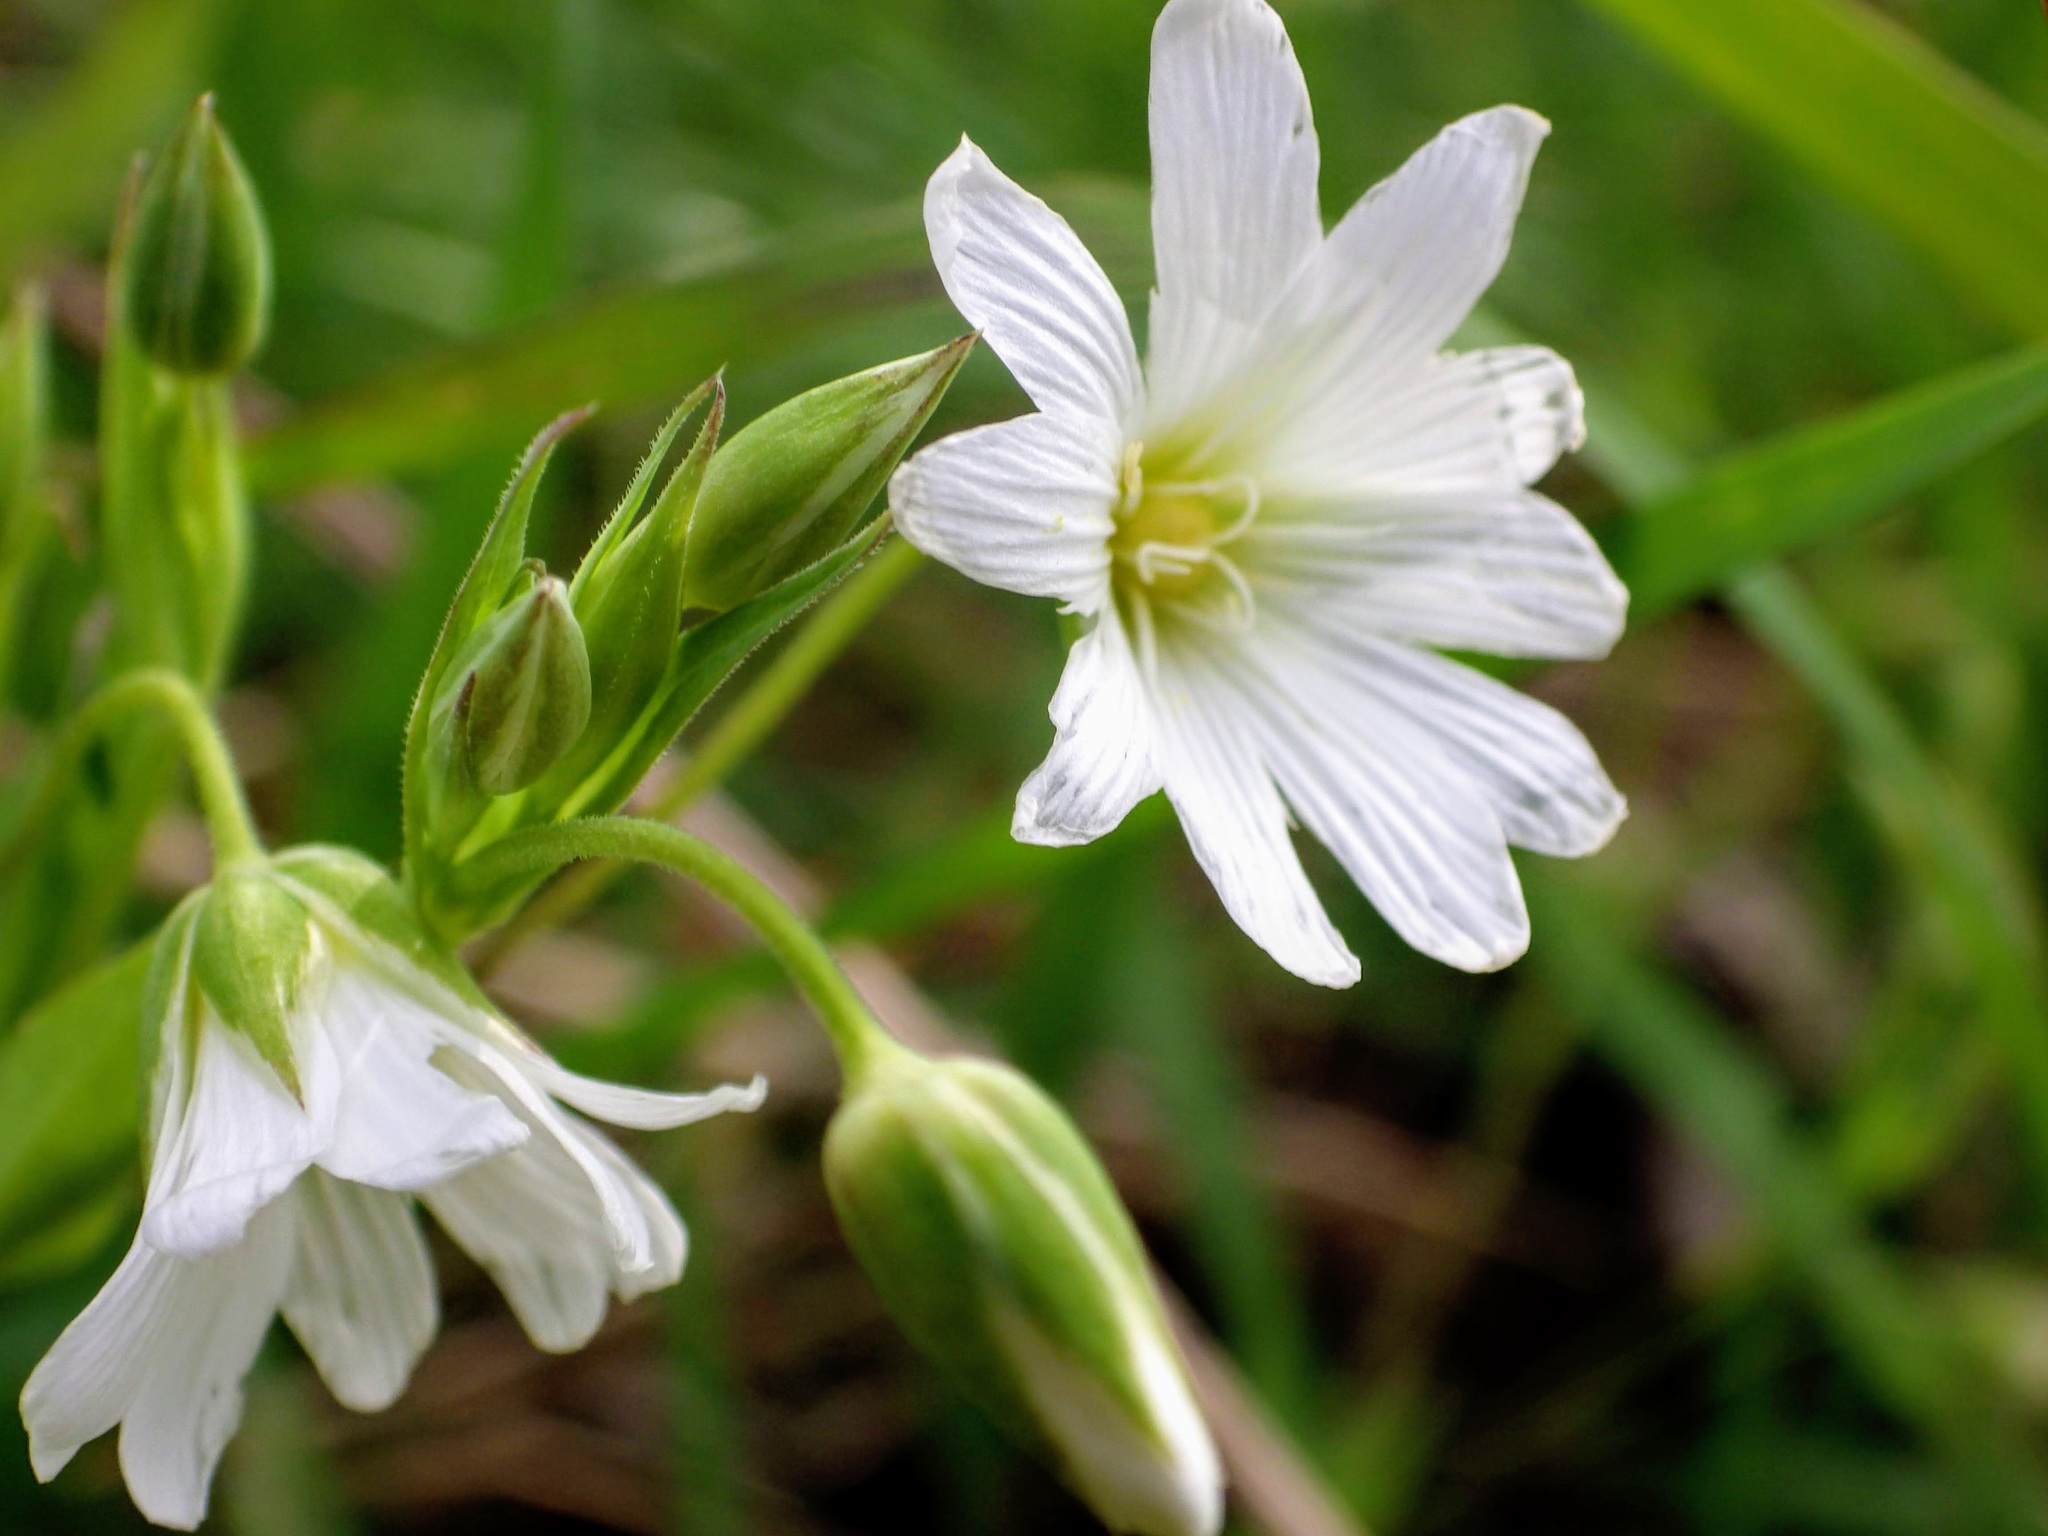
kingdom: Plantae
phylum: Tracheophyta
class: Magnoliopsida
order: Caryophyllales
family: Caryophyllaceae
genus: Rabelera
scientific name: Rabelera holostea
